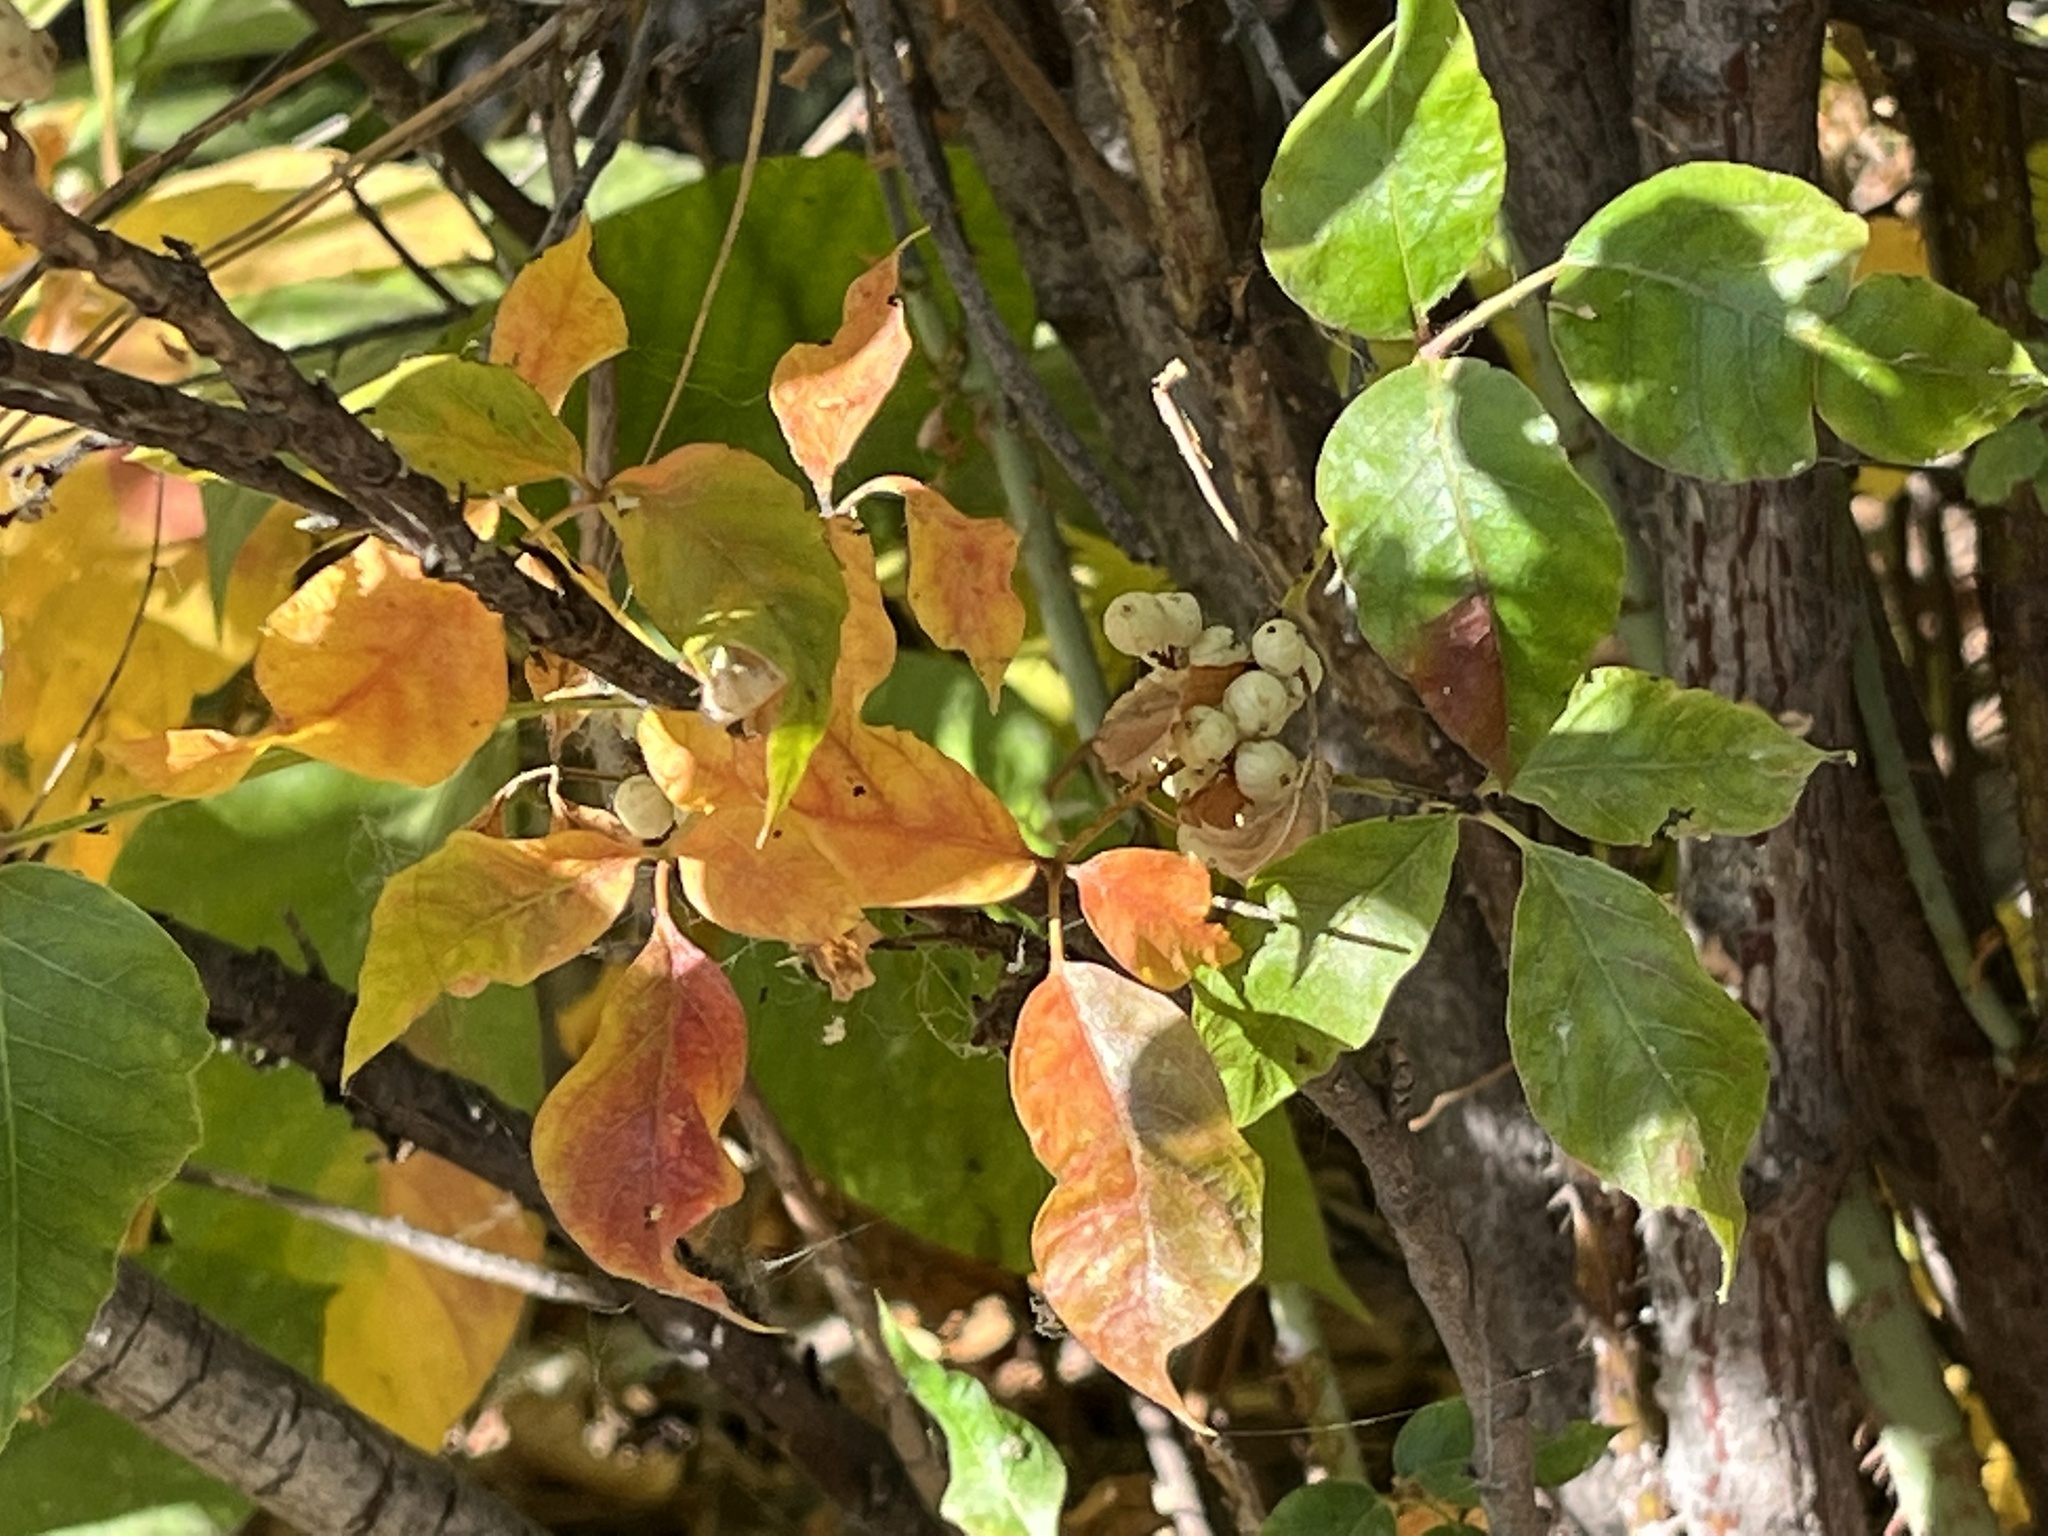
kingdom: Plantae
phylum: Tracheophyta
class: Magnoliopsida
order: Sapindales
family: Anacardiaceae
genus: Toxicodendron
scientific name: Toxicodendron rydbergii
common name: Rydberg's poison-ivy
